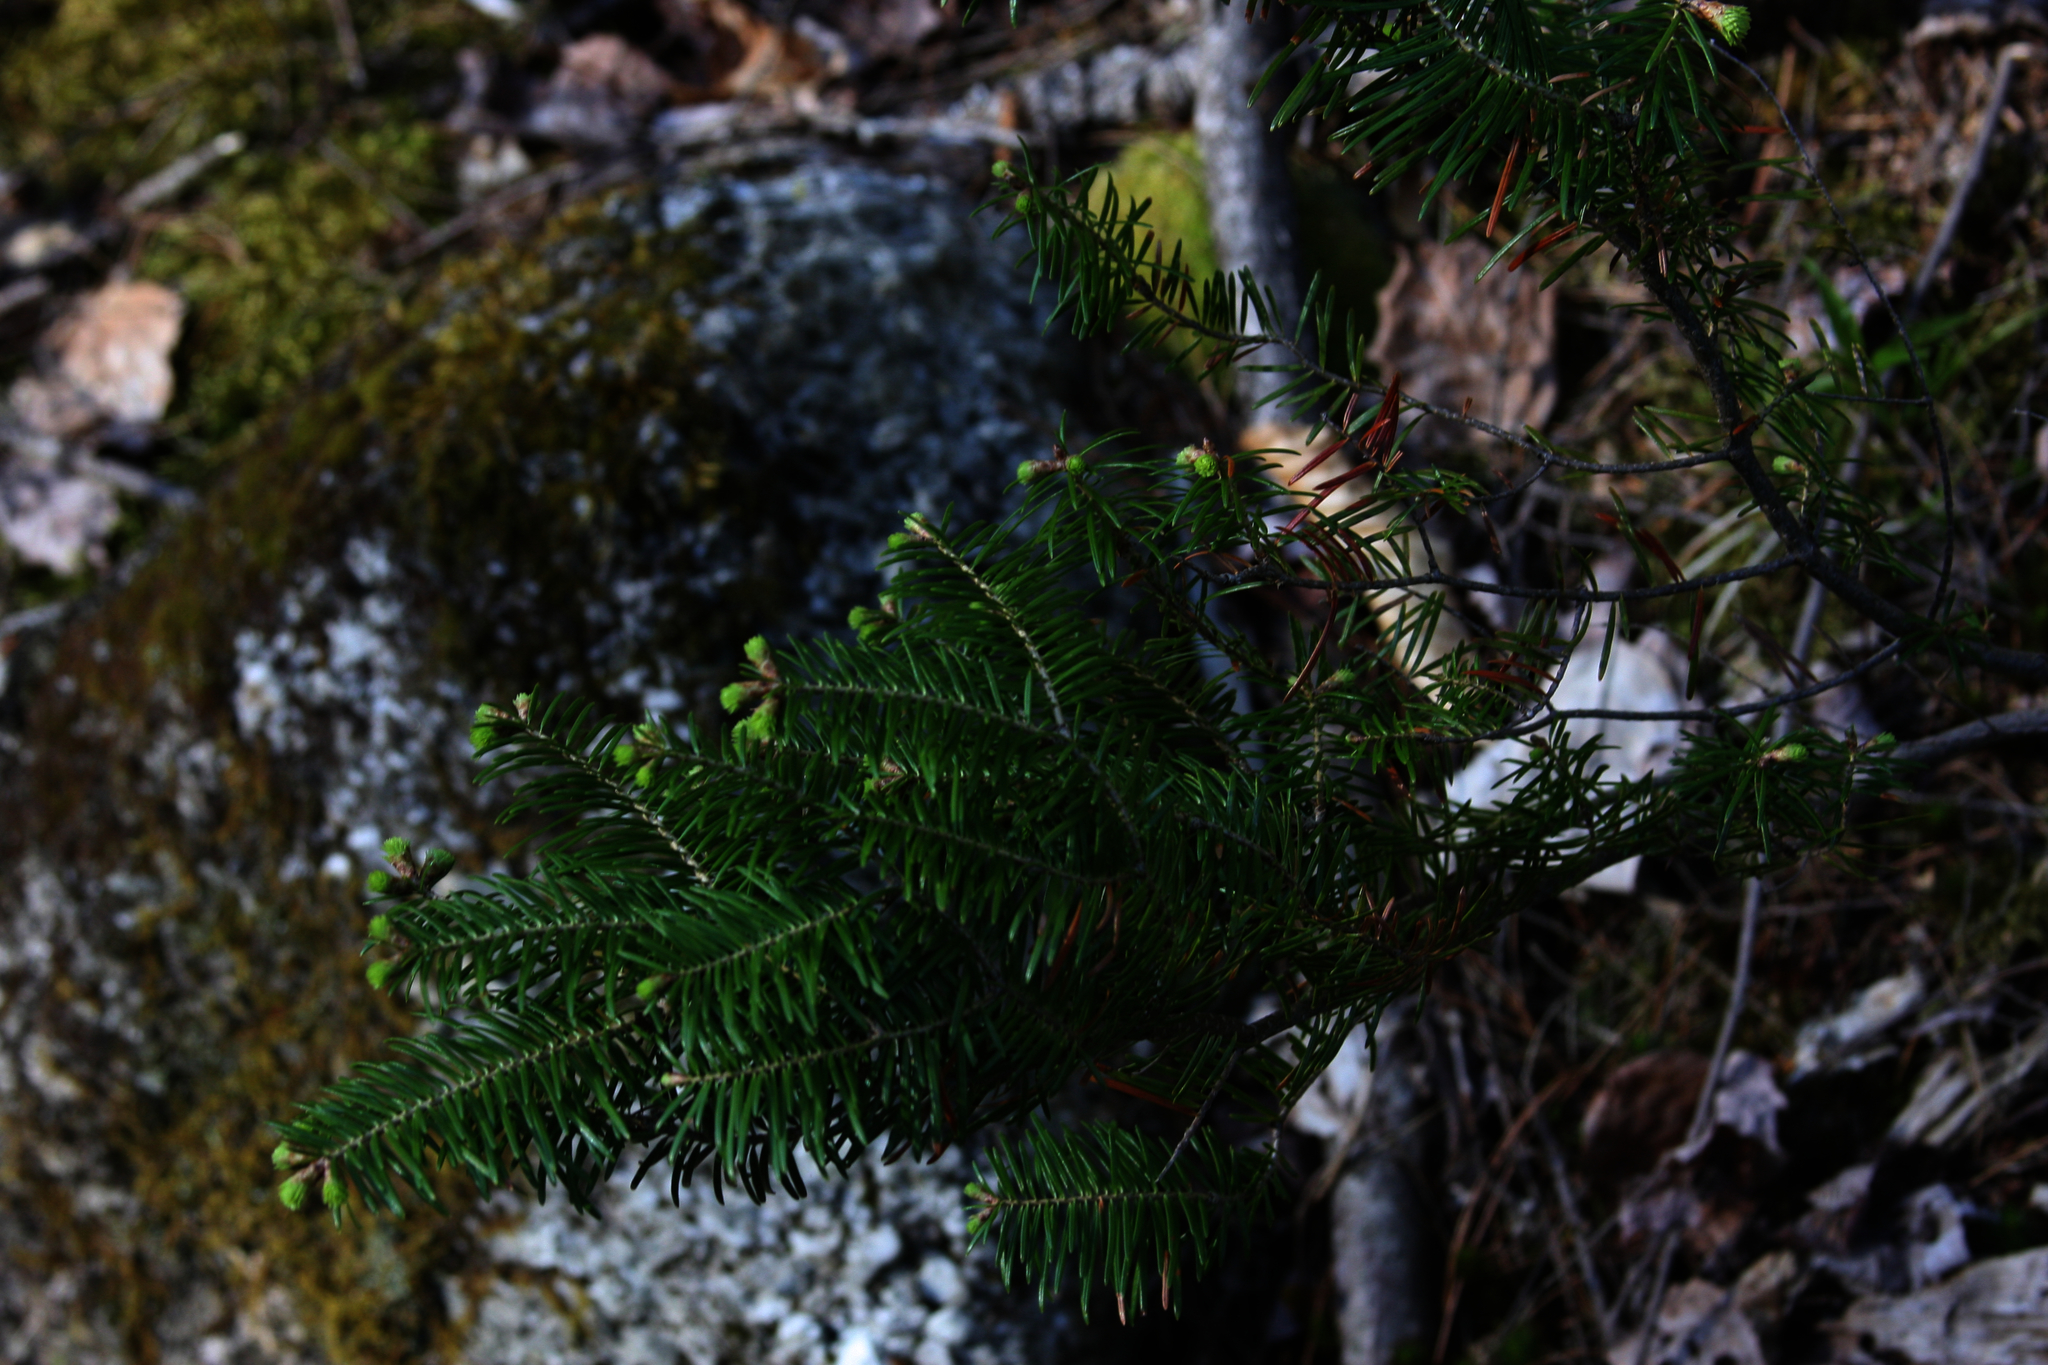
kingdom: Plantae
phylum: Tracheophyta
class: Pinopsida
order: Pinales
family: Pinaceae
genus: Abies
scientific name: Abies balsamea
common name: Balsam fir
